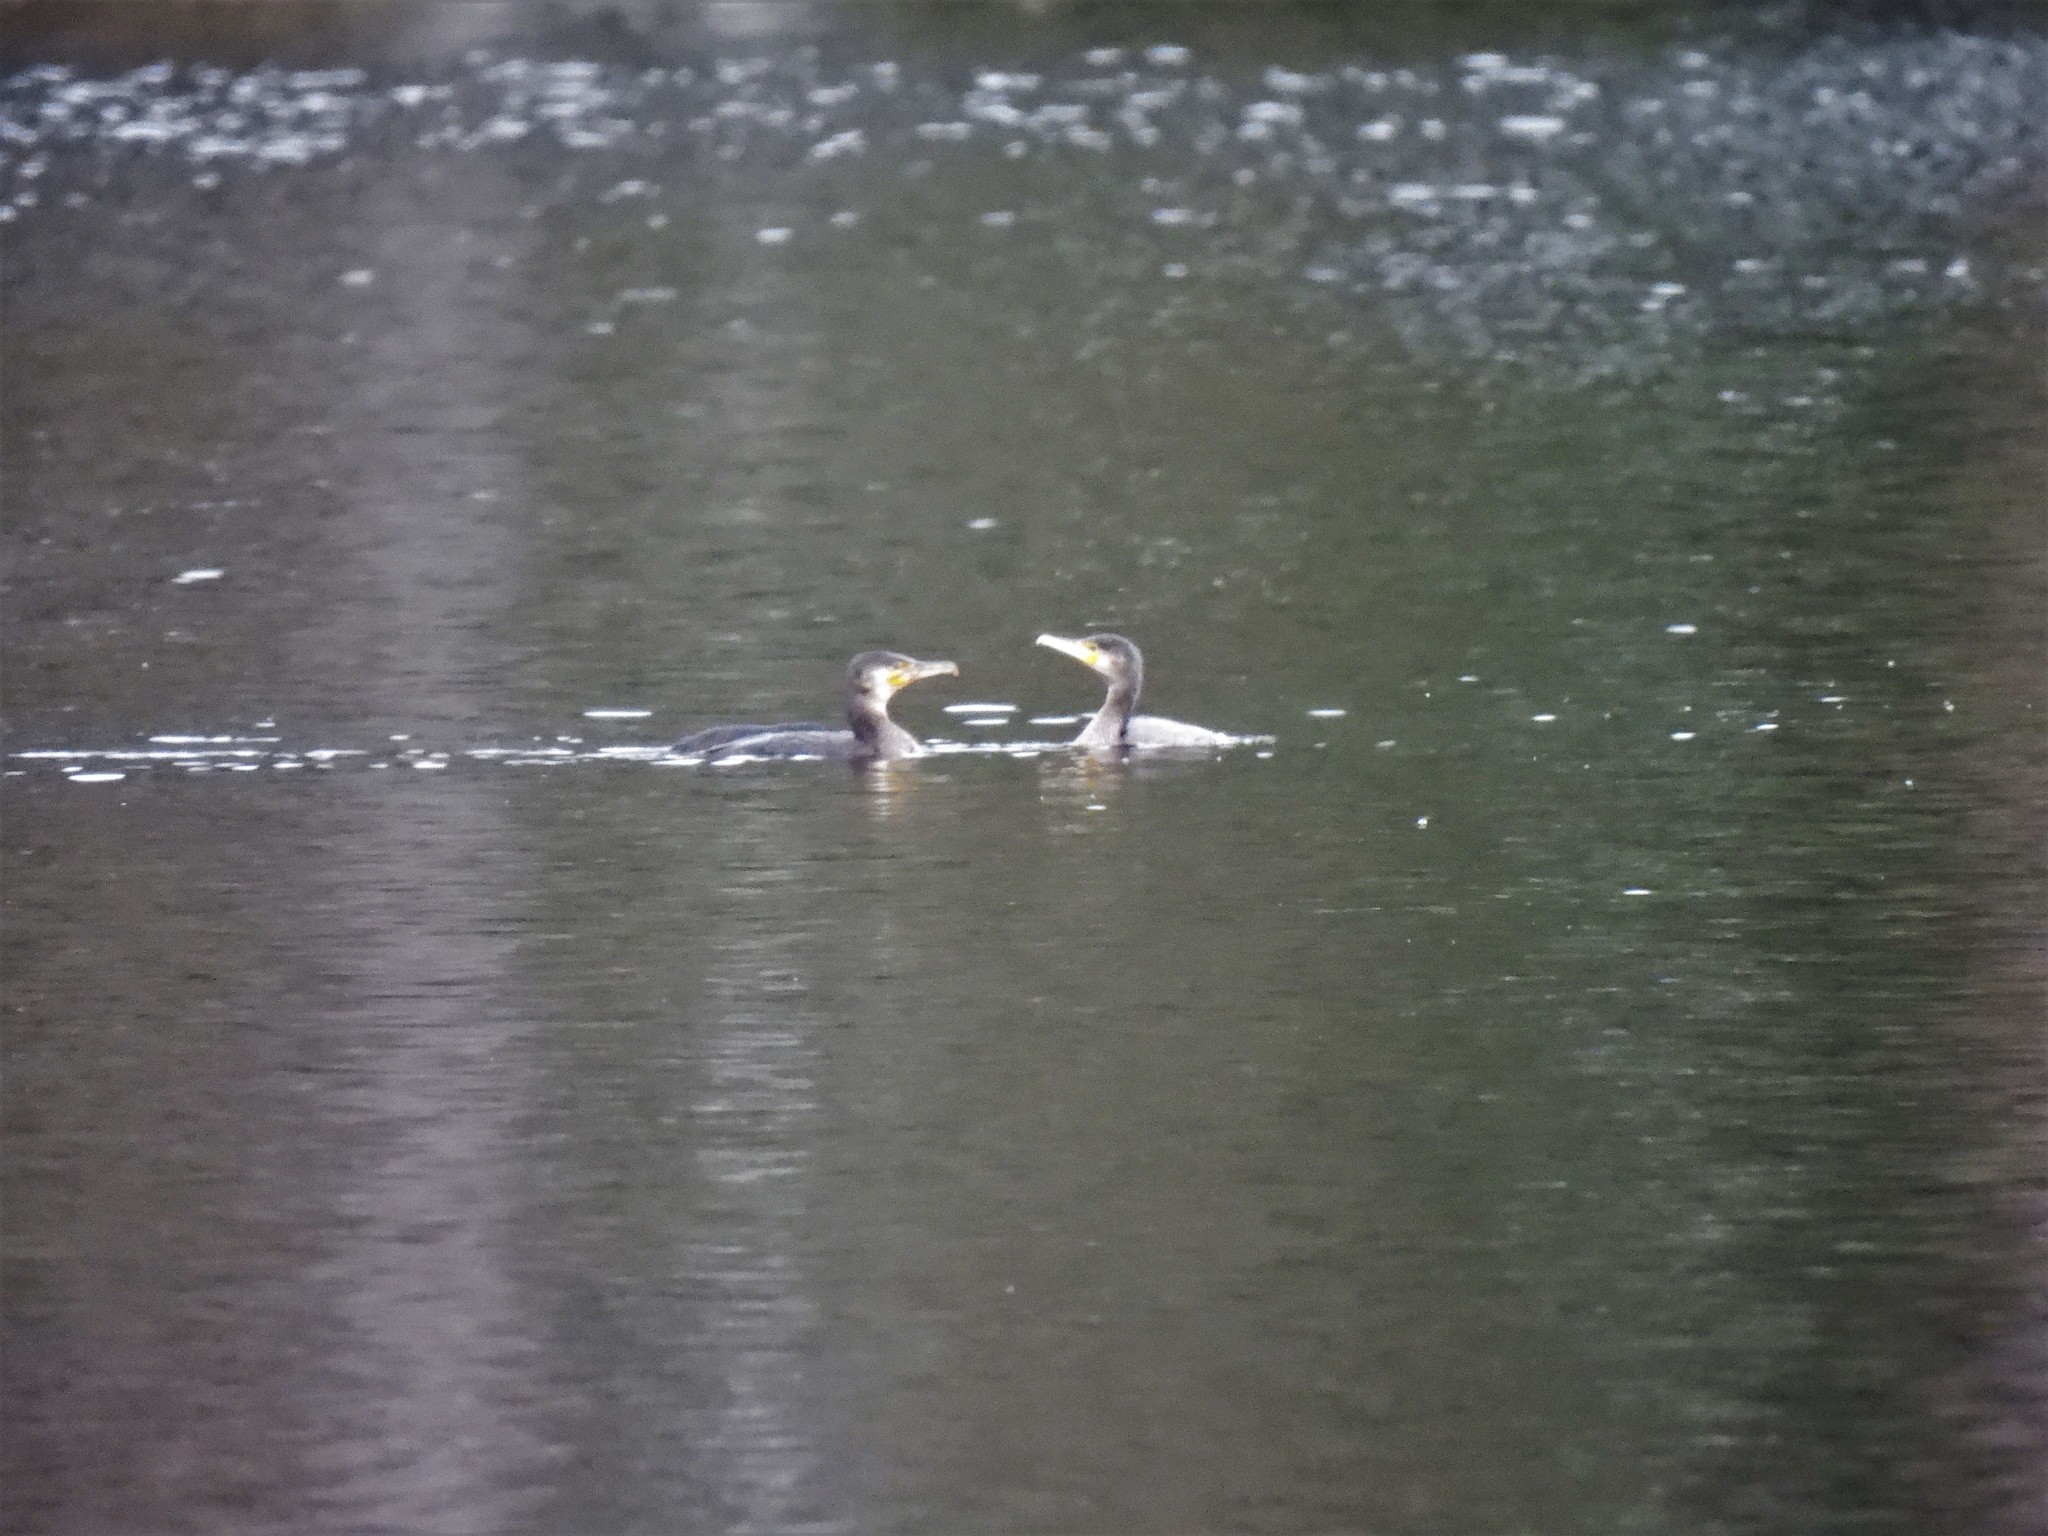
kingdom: Animalia
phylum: Chordata
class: Aves
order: Suliformes
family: Phalacrocoracidae
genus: Phalacrocorax
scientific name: Phalacrocorax carbo
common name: Great cormorant
